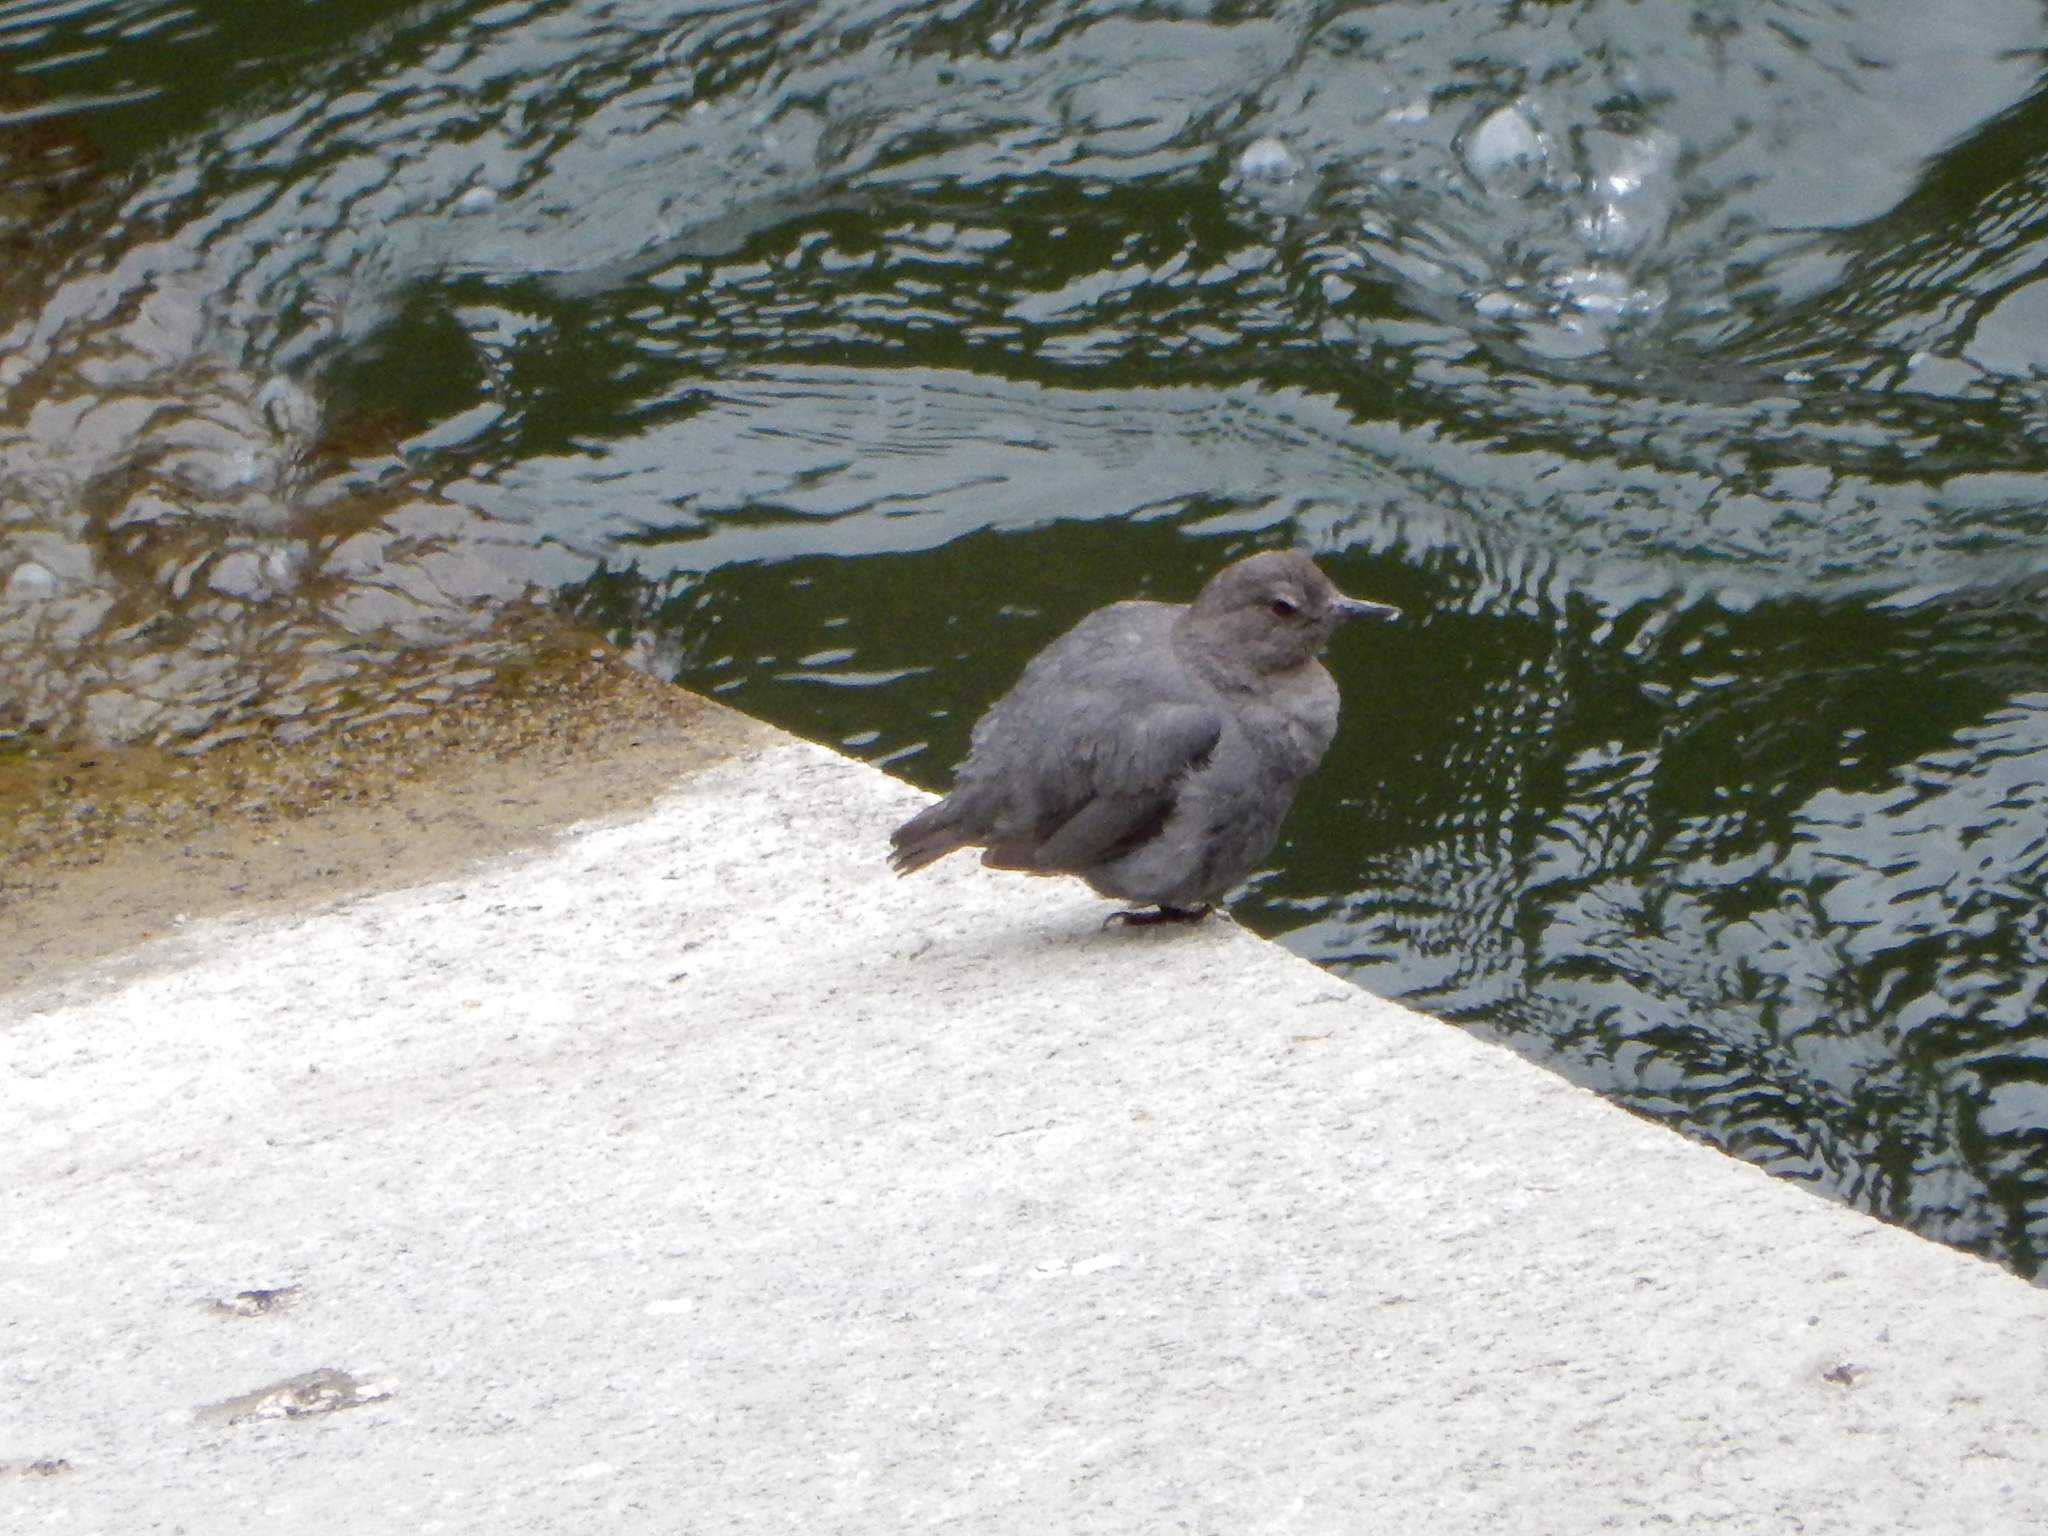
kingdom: Animalia
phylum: Chordata
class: Aves
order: Passeriformes
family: Cinclidae
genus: Cinclus
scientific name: Cinclus mexicanus
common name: American dipper
